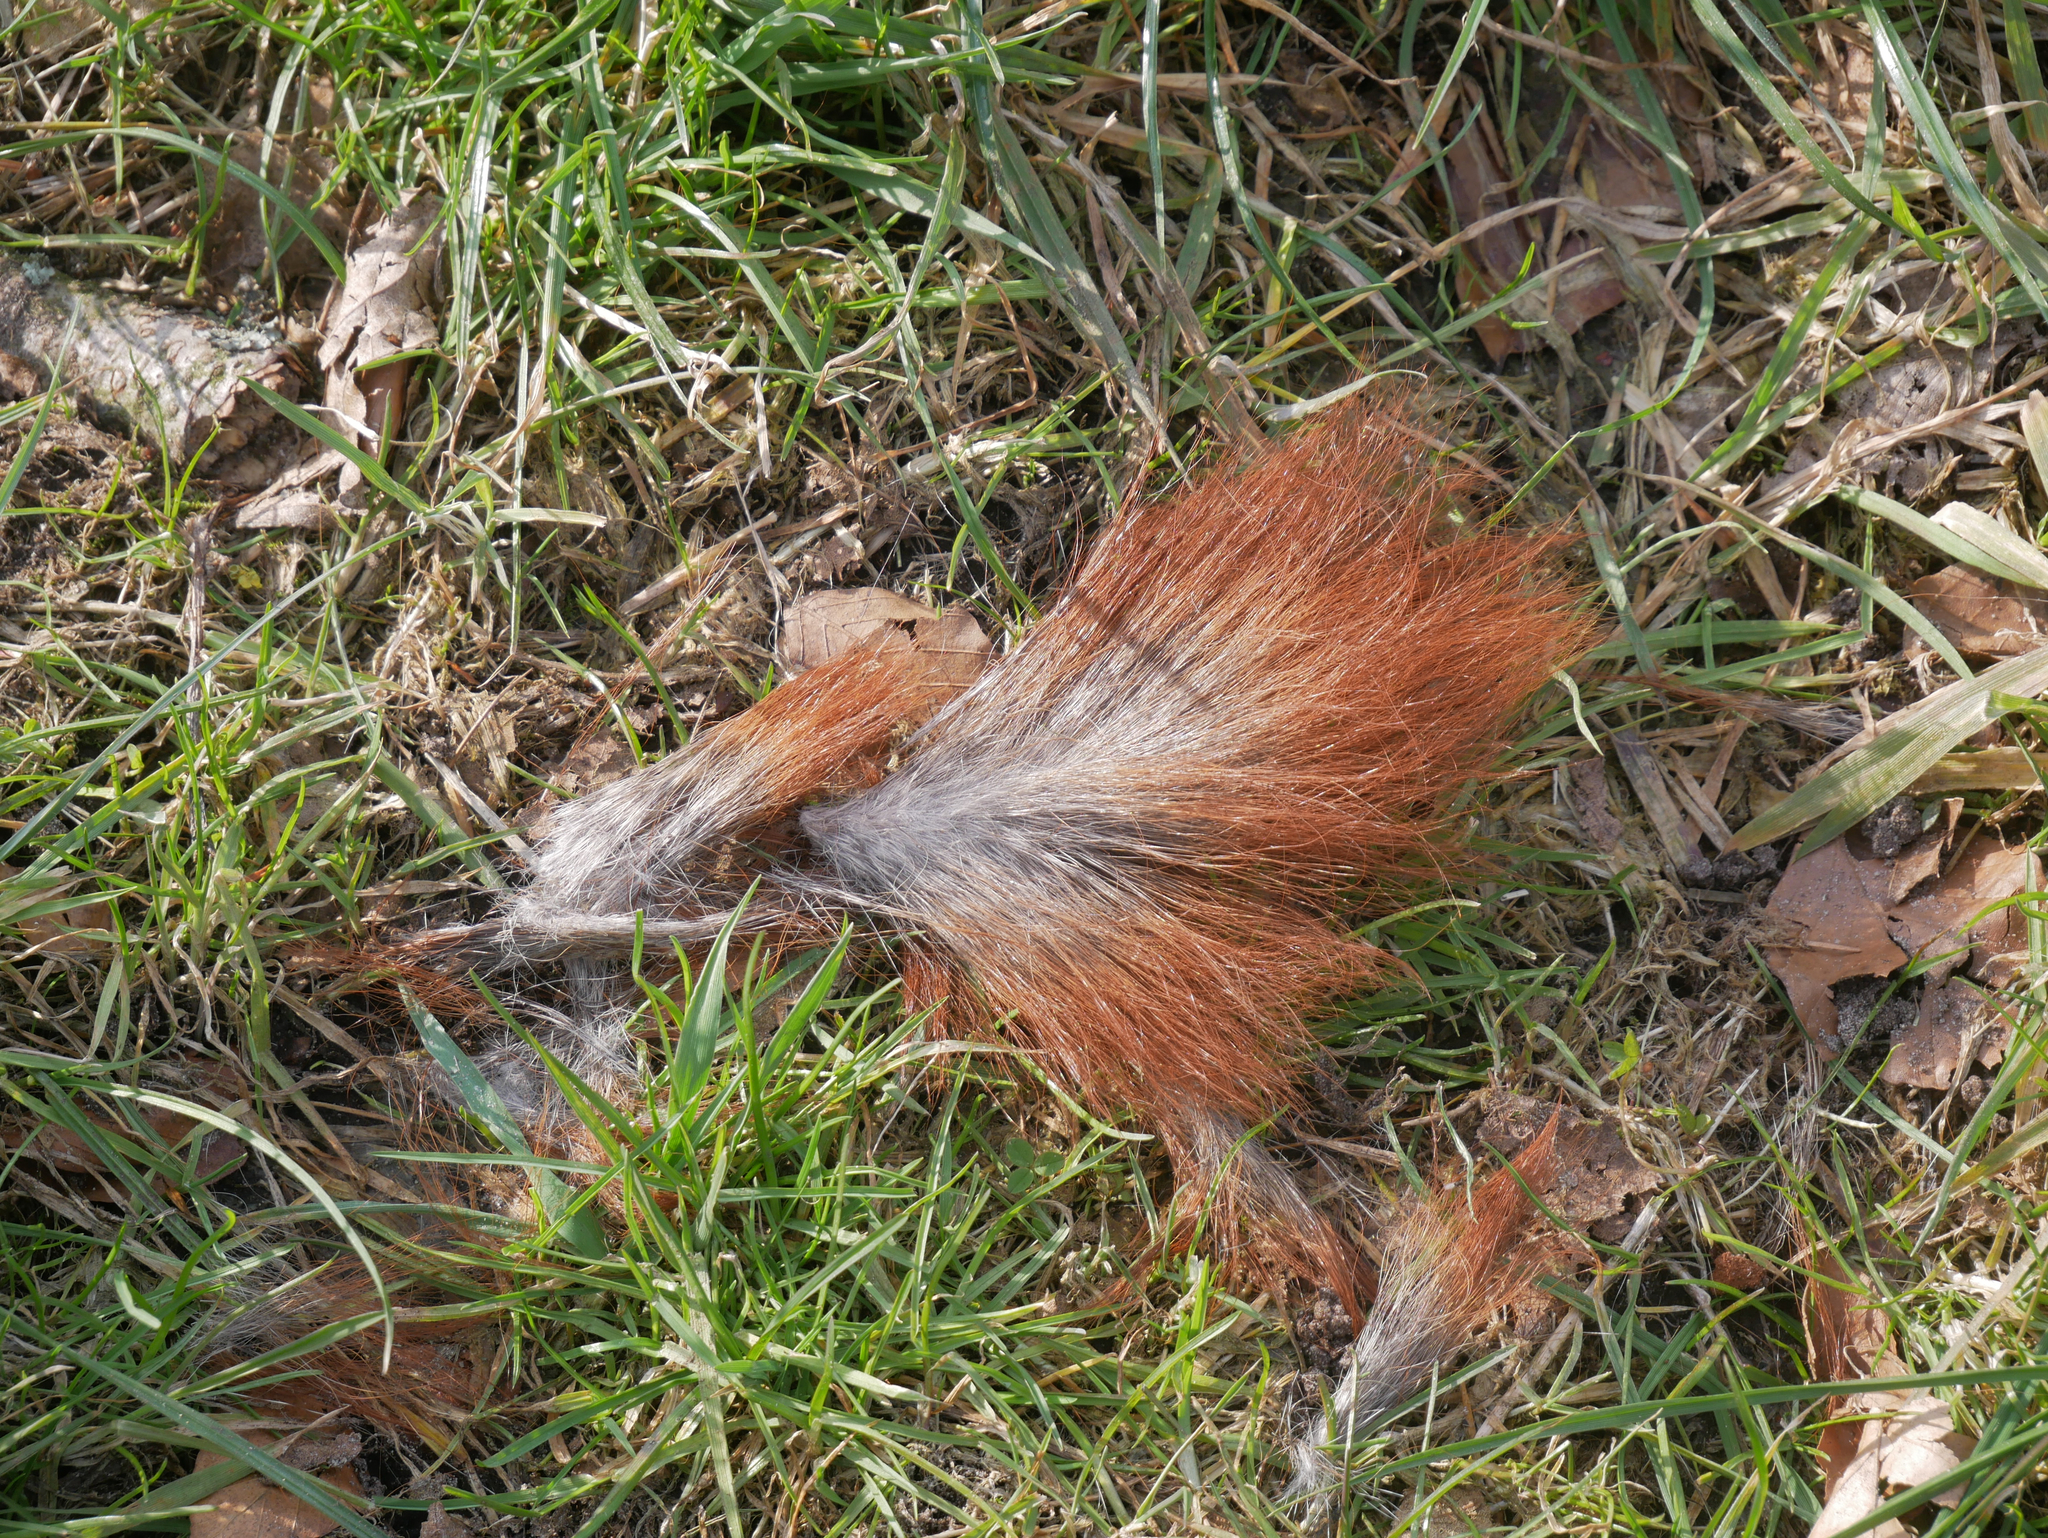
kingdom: Animalia
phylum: Chordata
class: Mammalia
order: Rodentia
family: Sciuridae
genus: Sciurus
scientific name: Sciurus vulgaris
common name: Eurasian red squirrel
